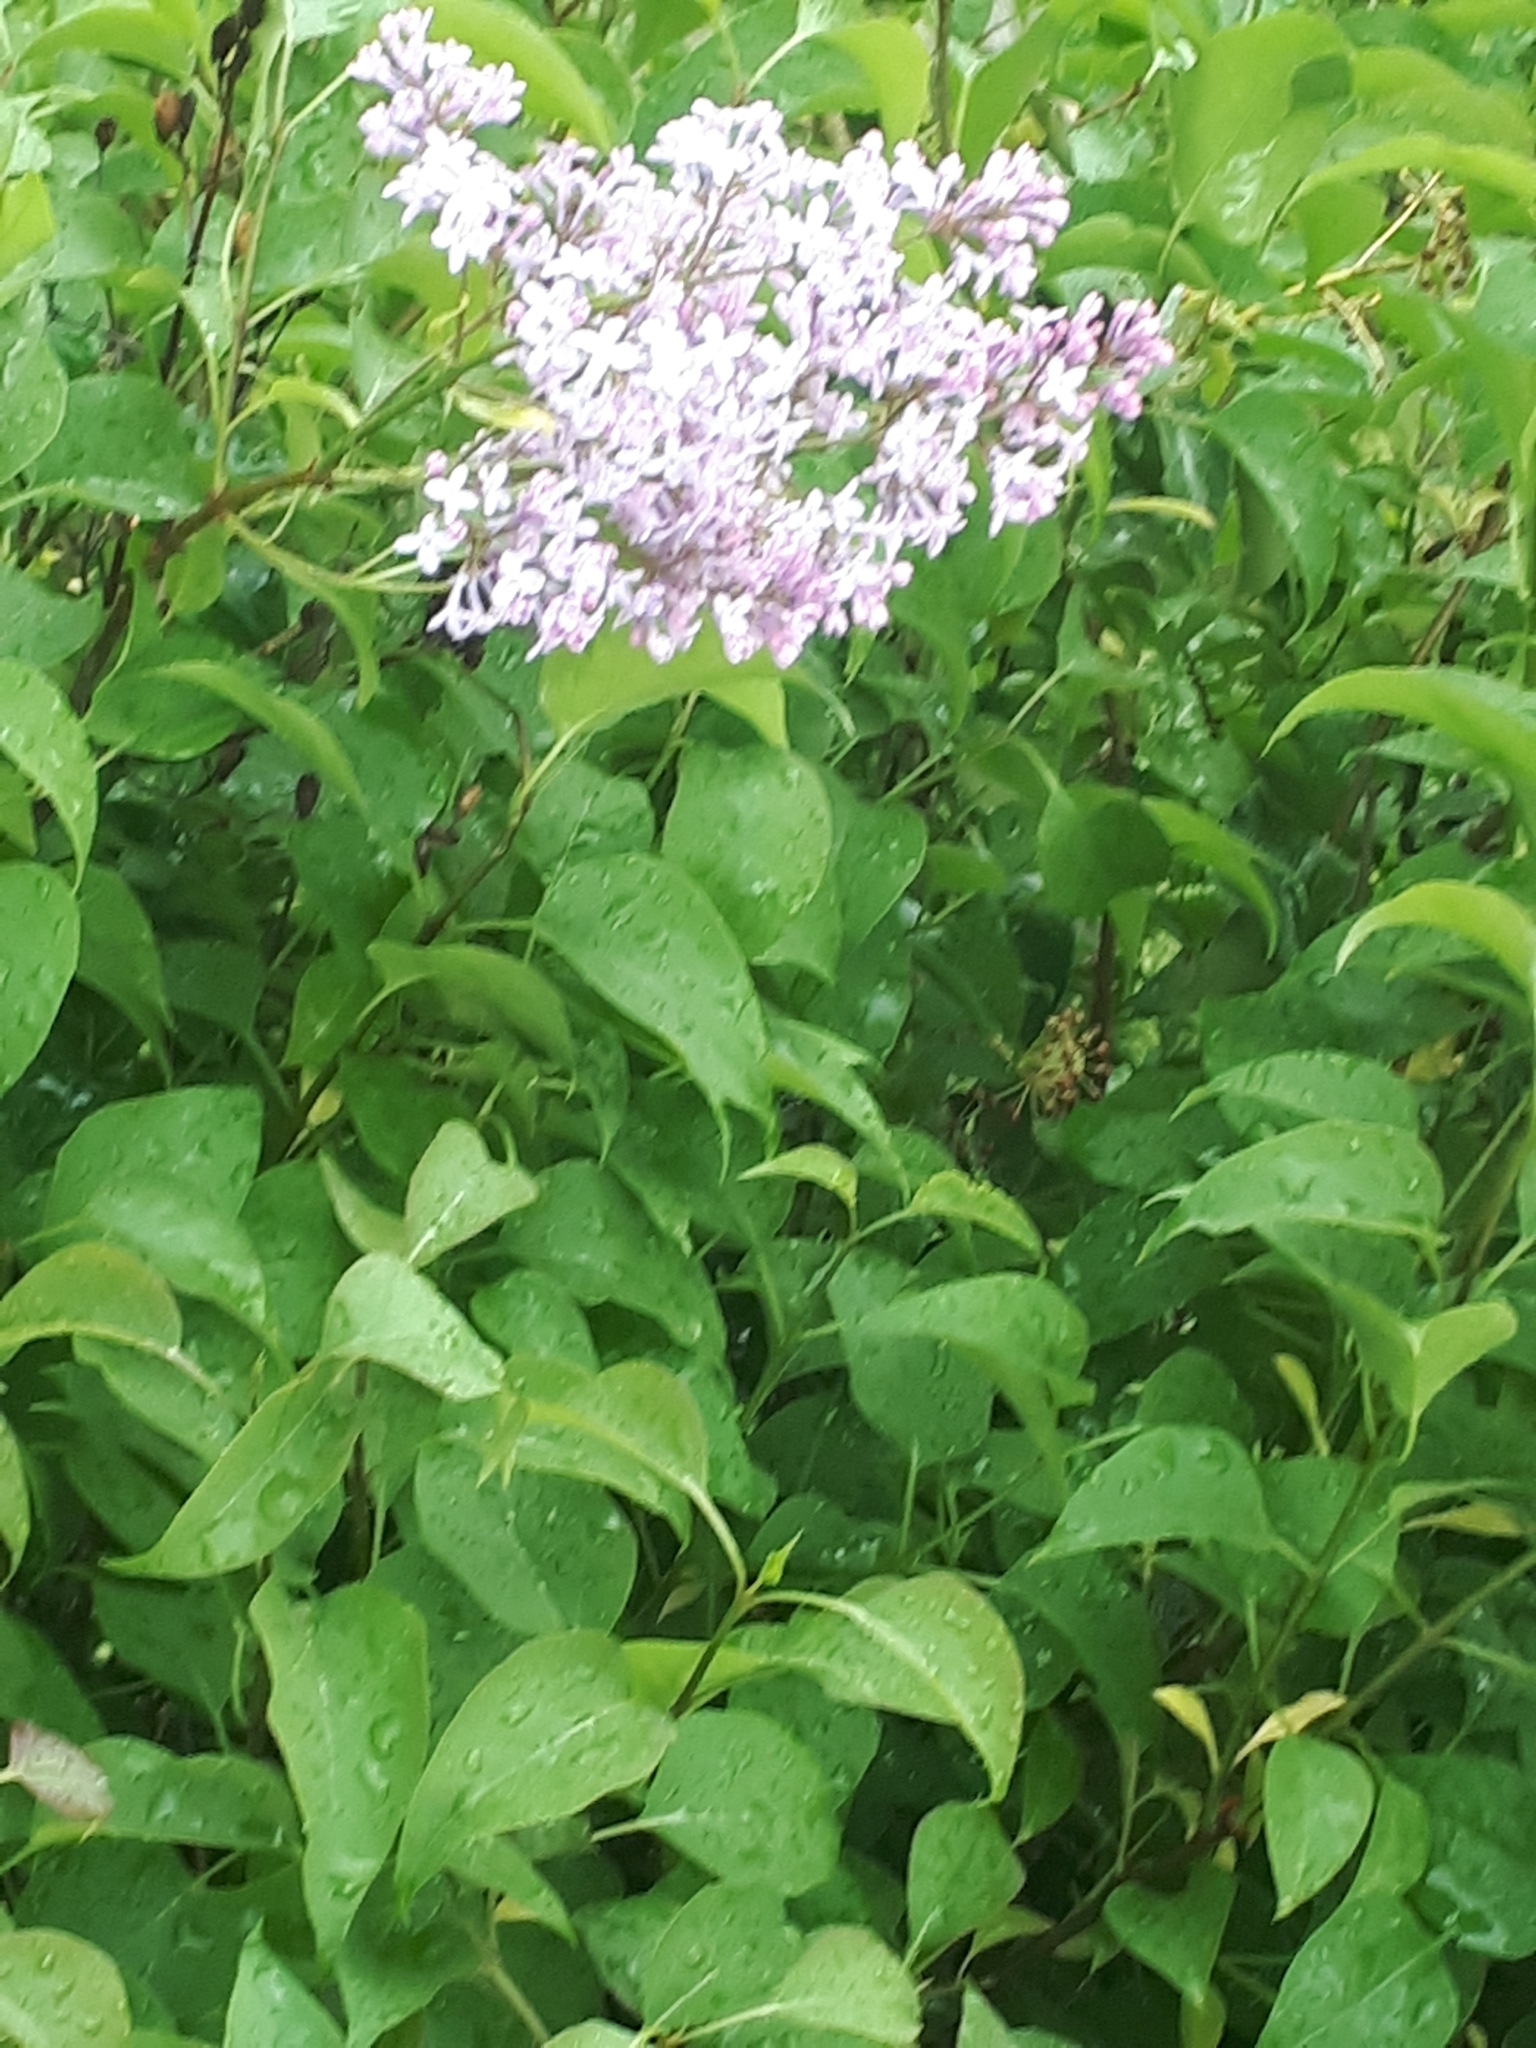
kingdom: Plantae
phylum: Tracheophyta
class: Magnoliopsida
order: Lamiales
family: Oleaceae
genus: Syringa
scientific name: Syringa vulgaris
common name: Common lilac
